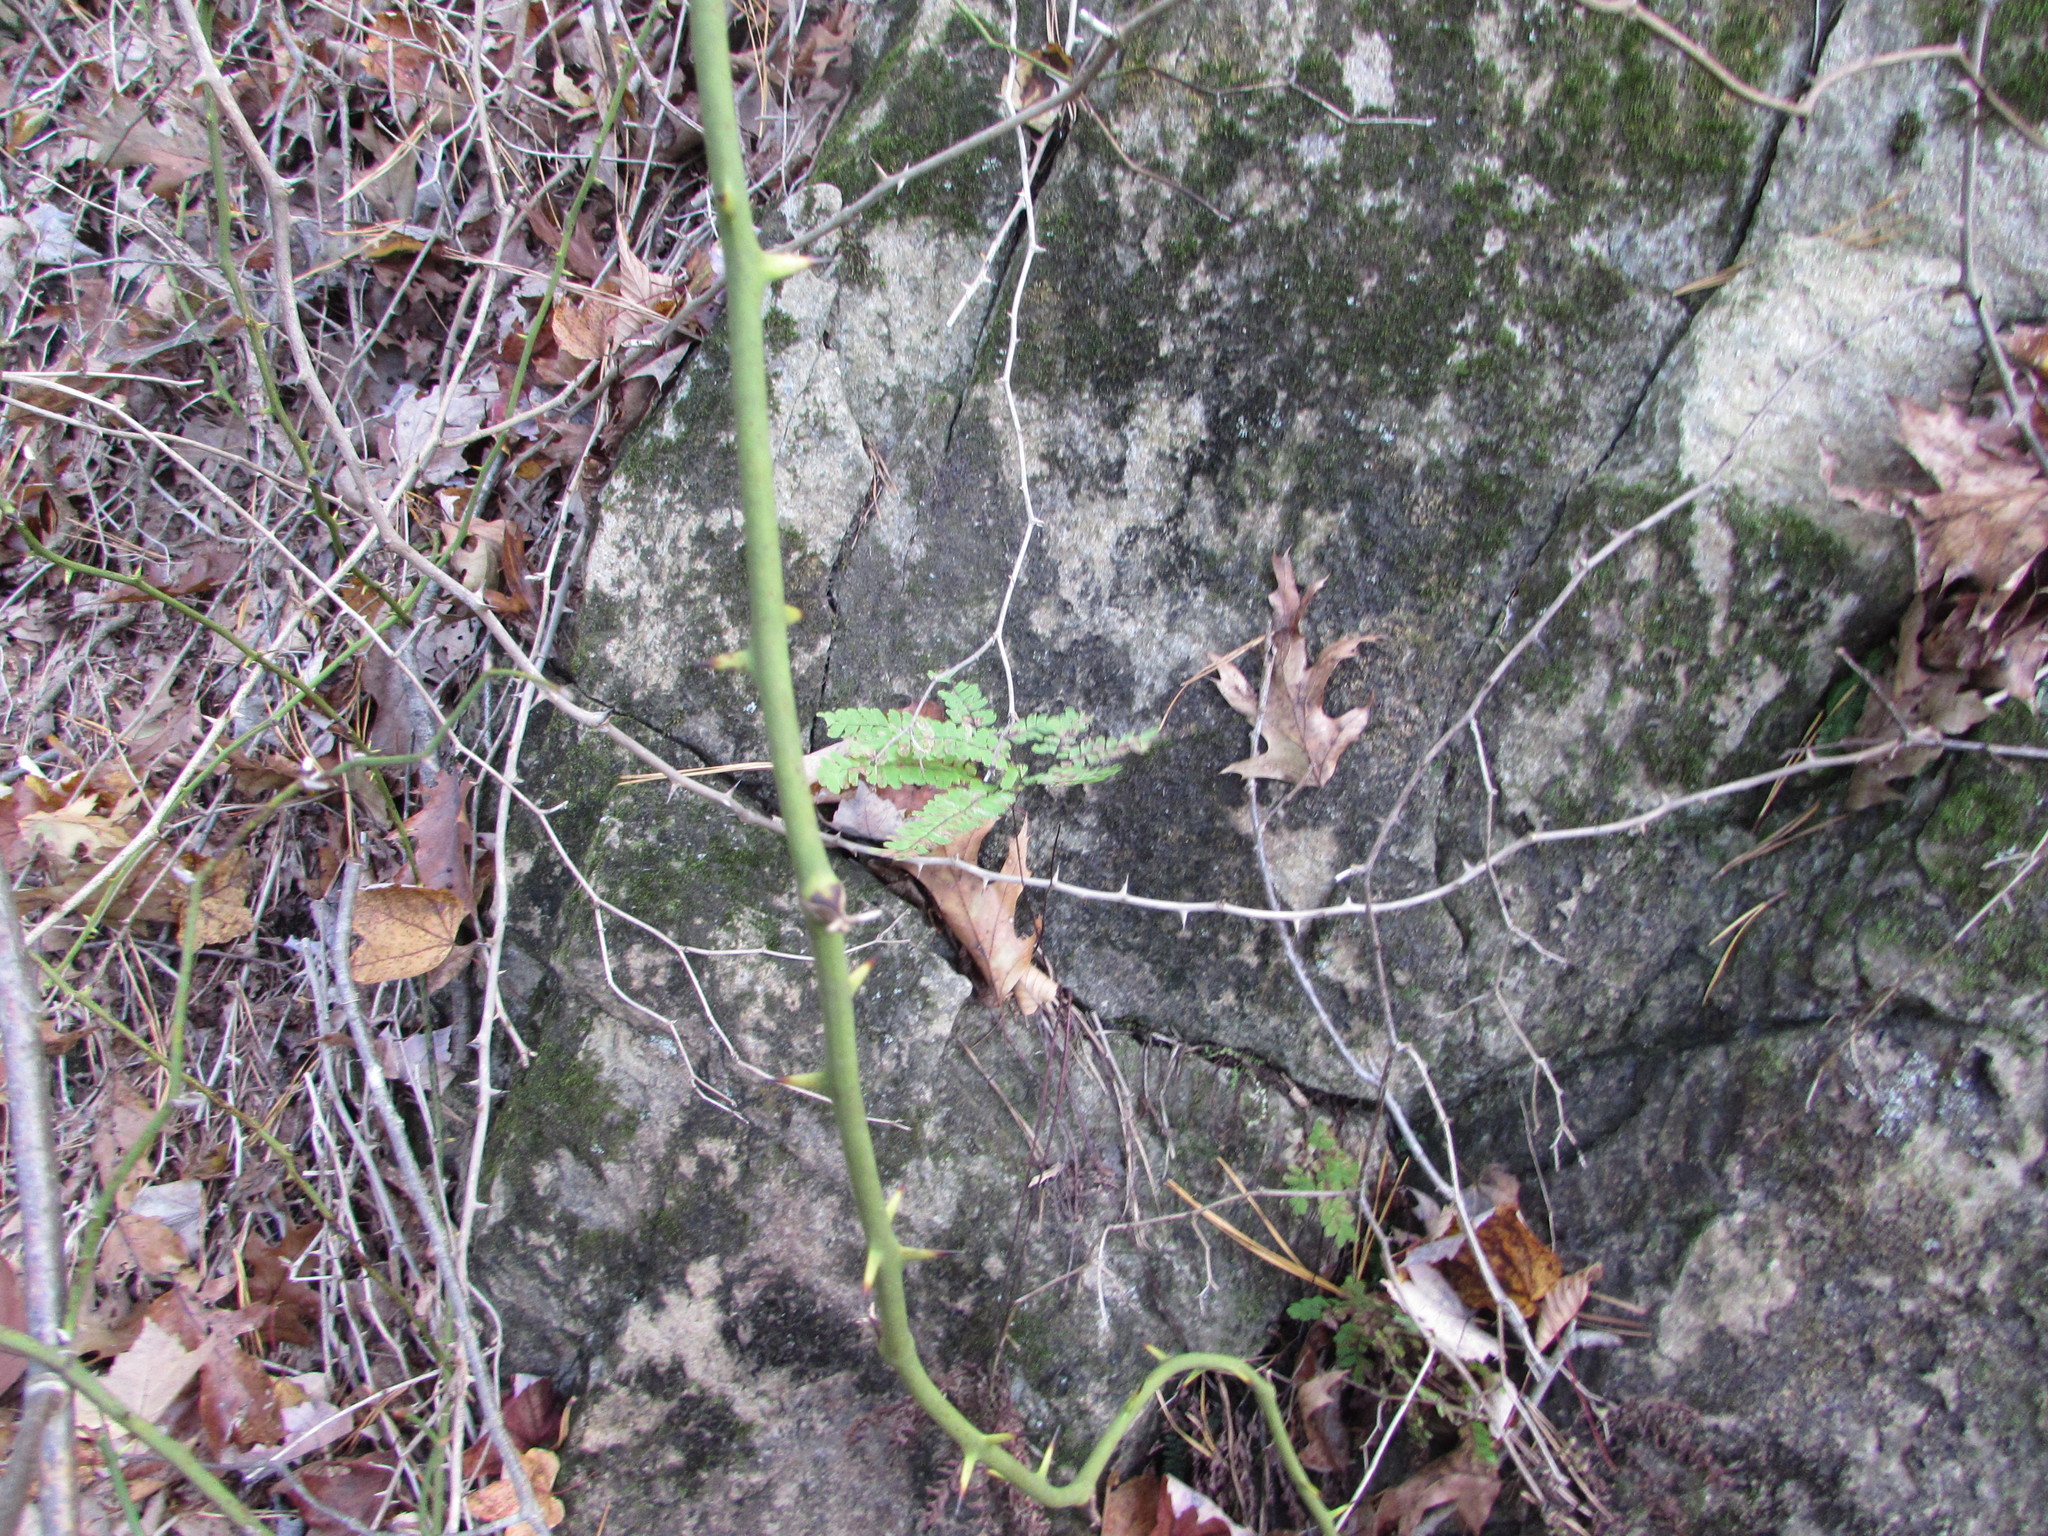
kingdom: Plantae
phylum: Tracheophyta
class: Polypodiopsida
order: Polypodiales
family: Pteridaceae
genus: Adiantum
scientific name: Adiantum pedatum
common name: Five-finger fern
